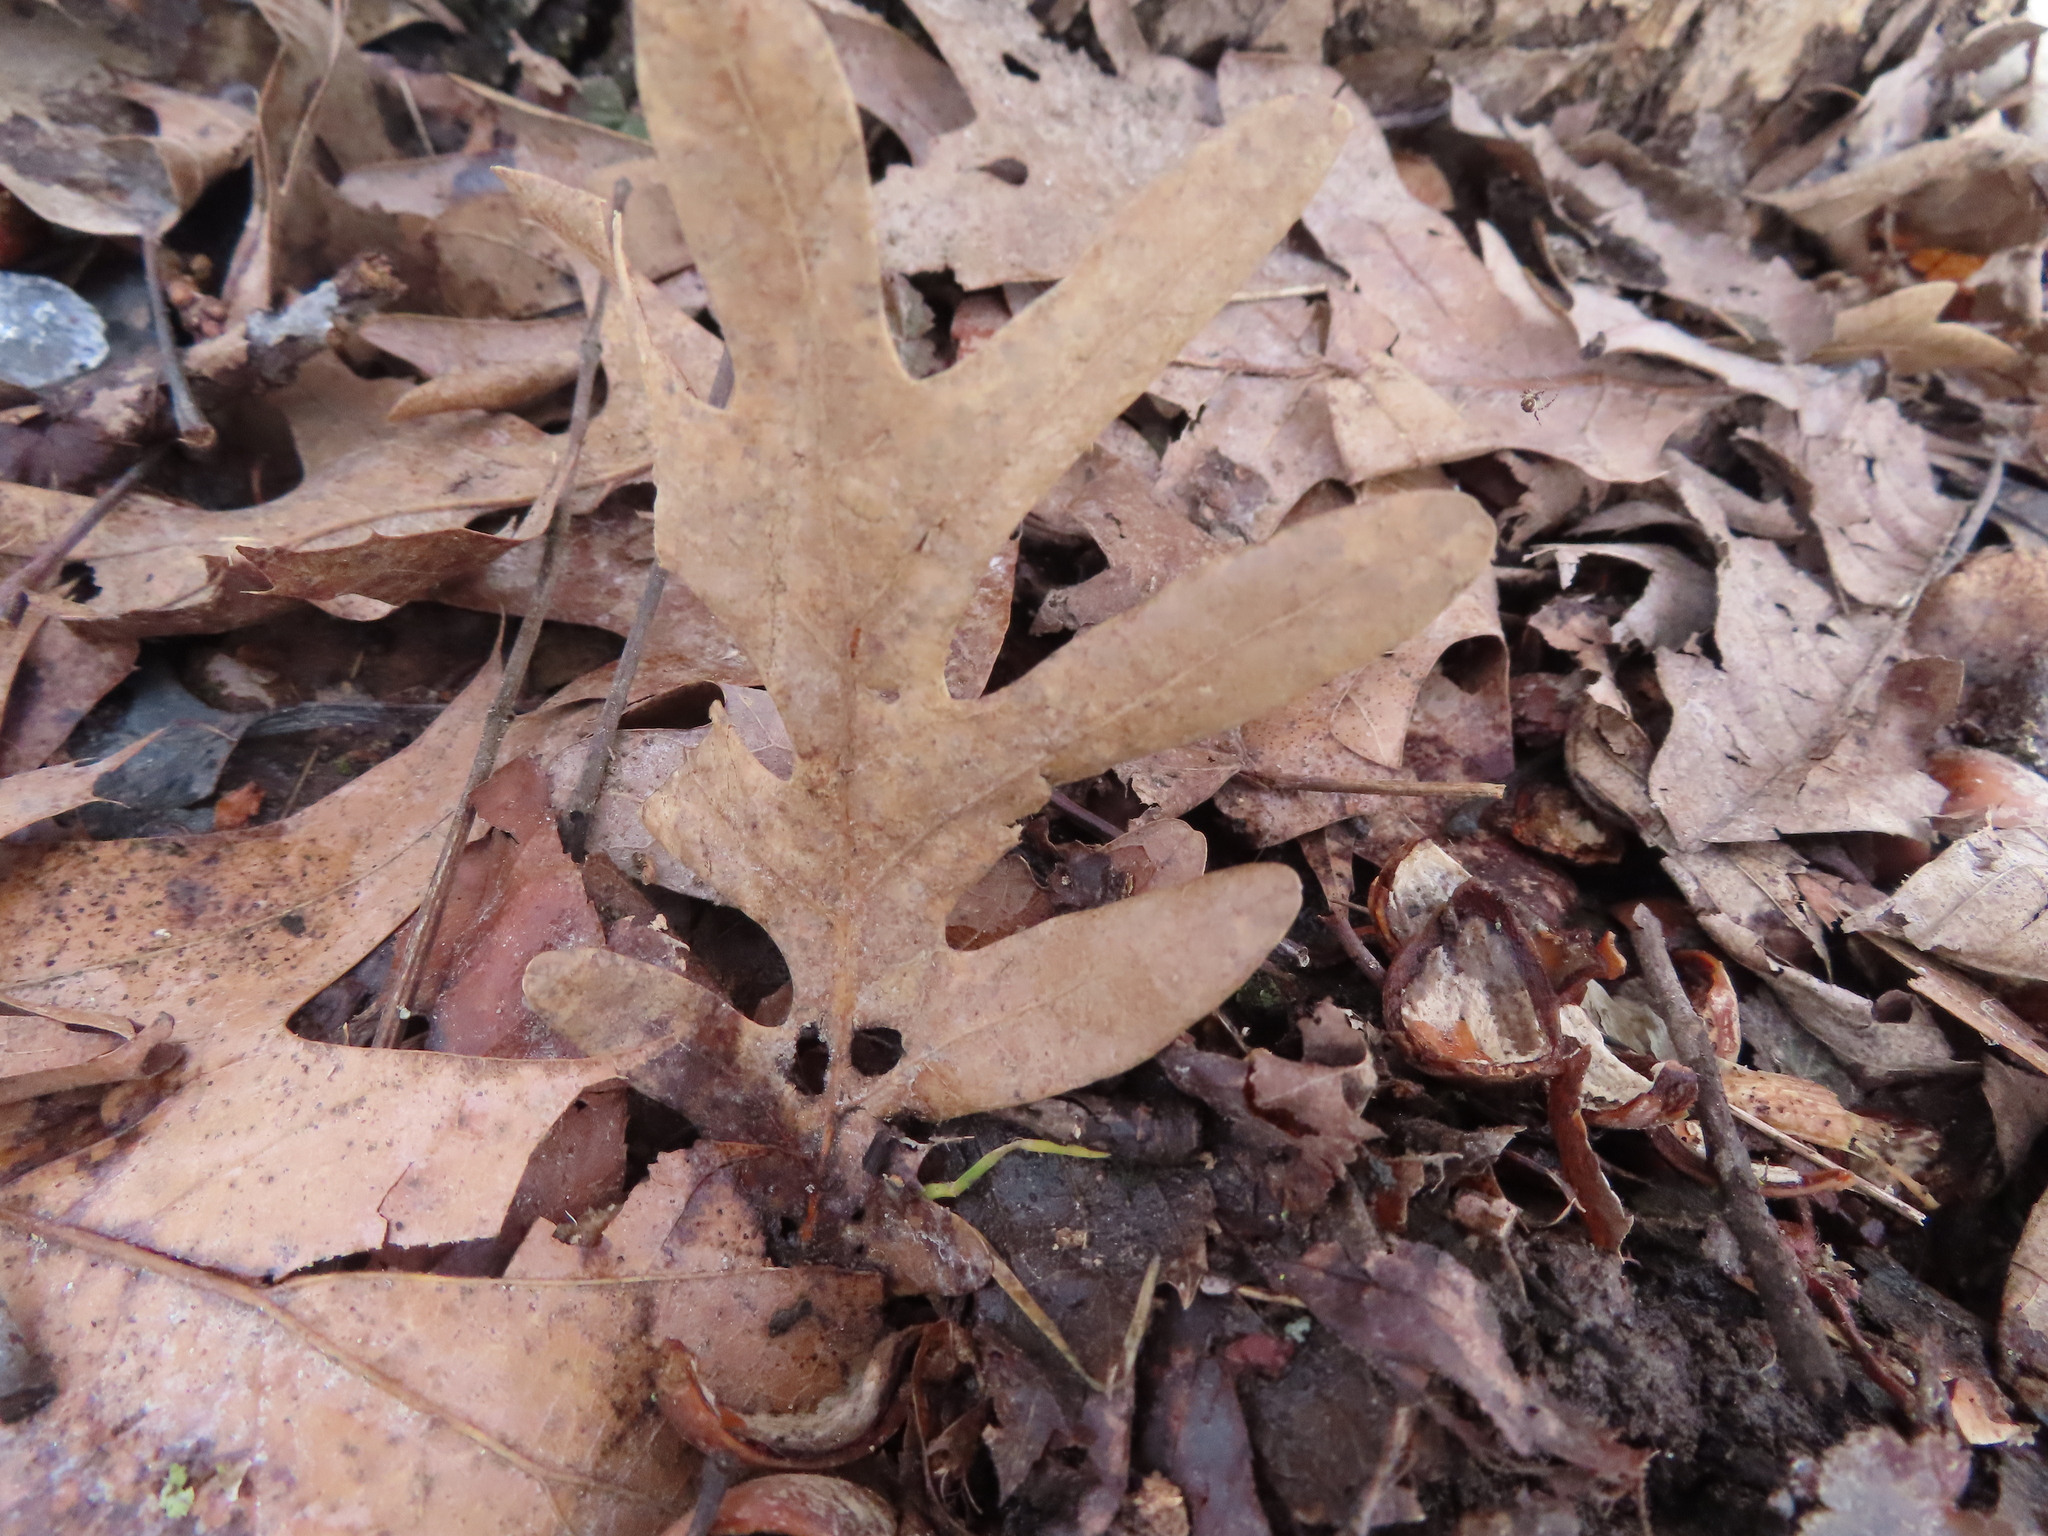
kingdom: Plantae
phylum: Tracheophyta
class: Magnoliopsida
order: Fagales
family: Fagaceae
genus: Quercus
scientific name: Quercus alba
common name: White oak
